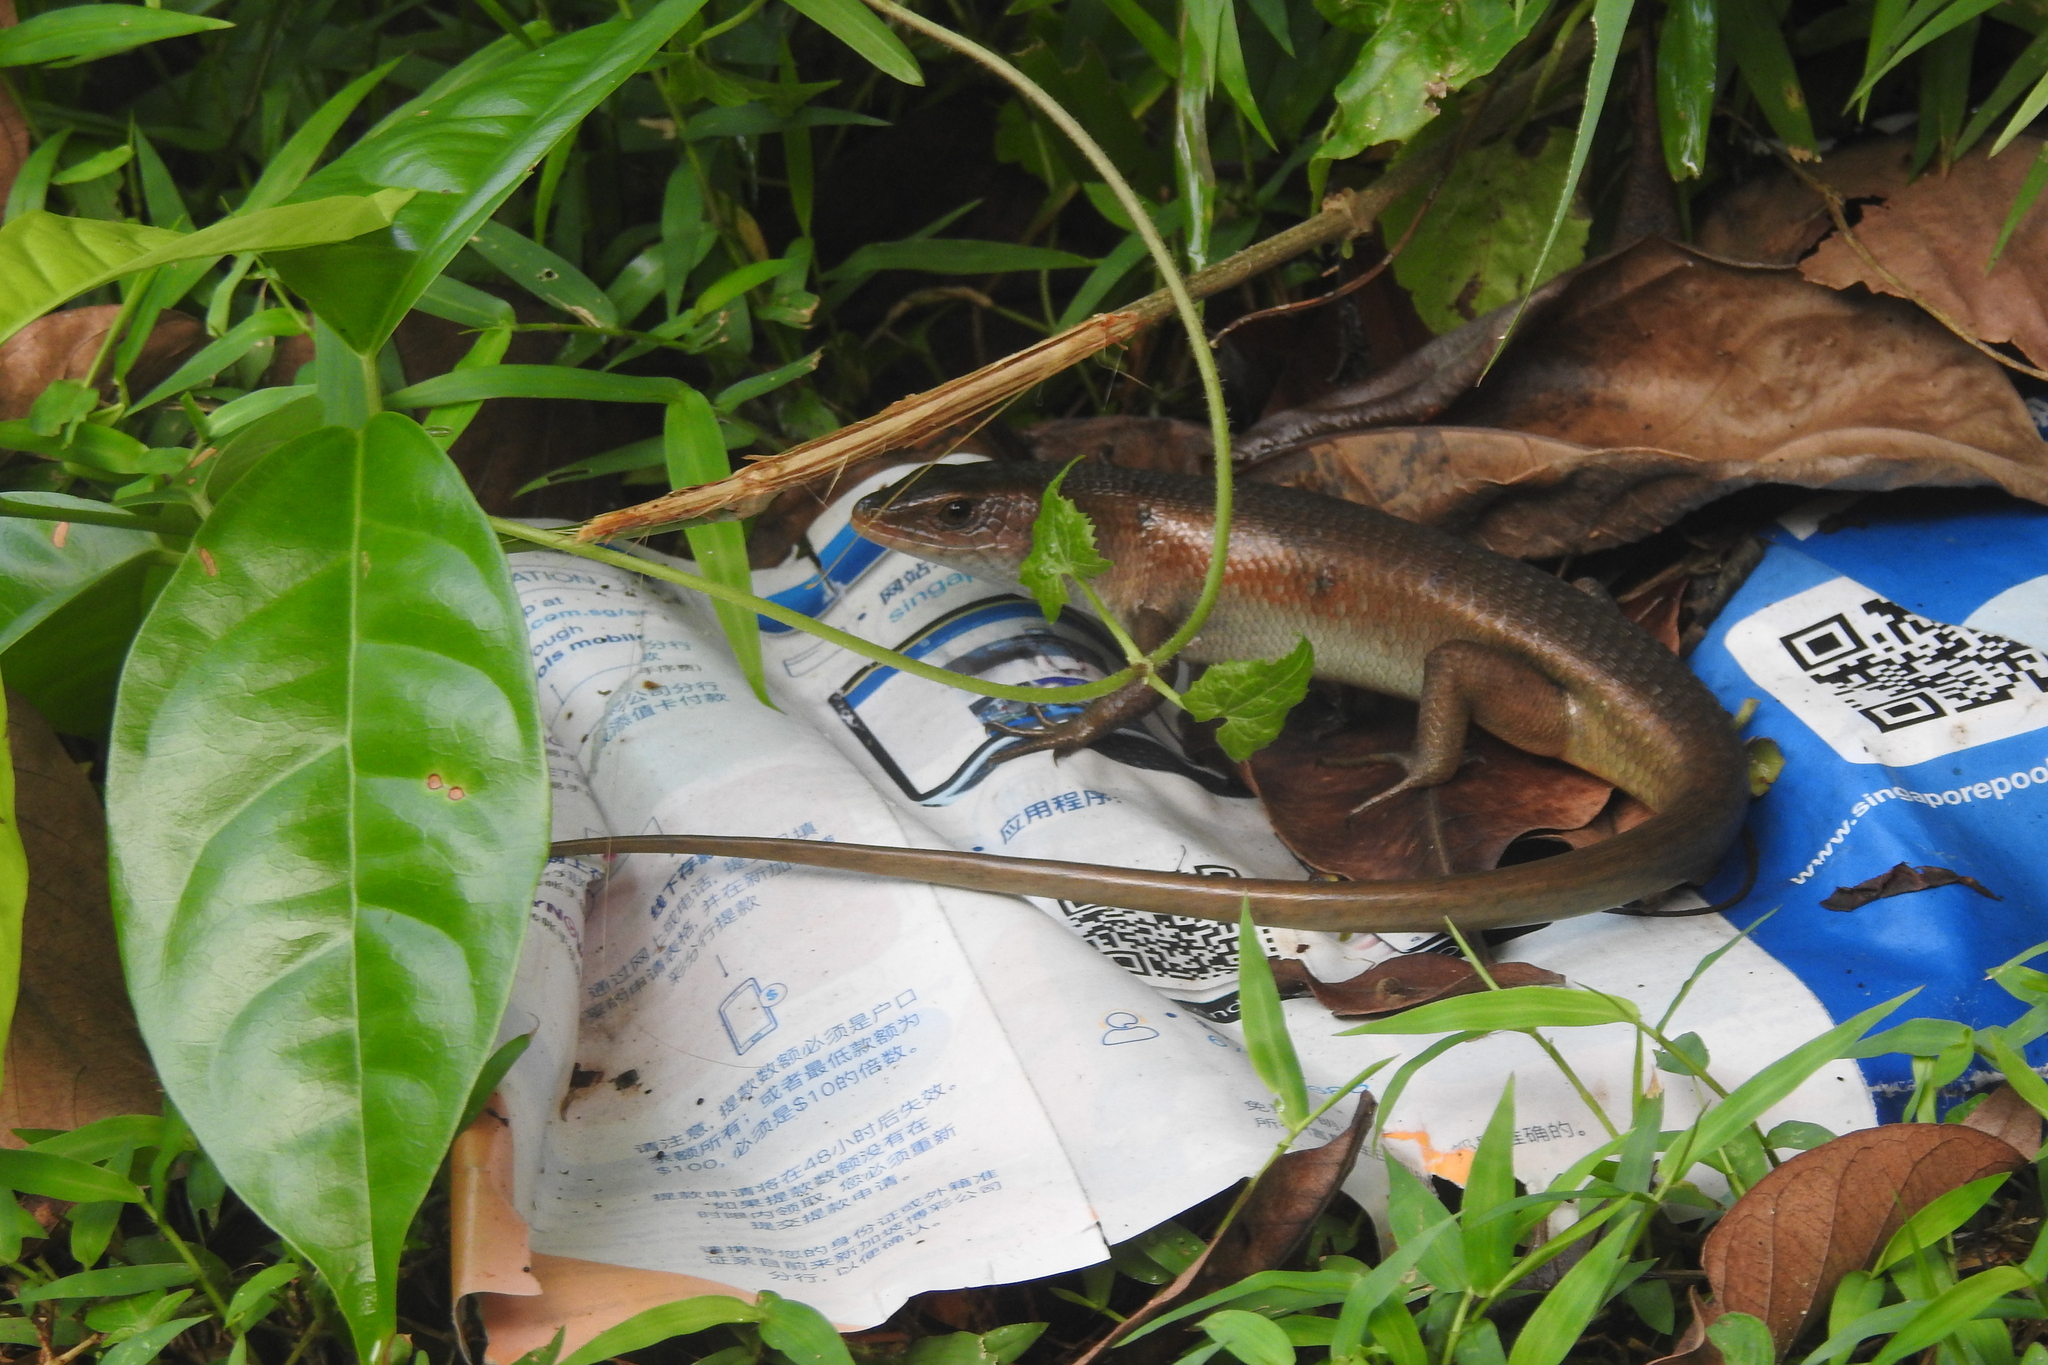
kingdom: Animalia
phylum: Chordata
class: Squamata
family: Scincidae
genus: Eutropis
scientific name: Eutropis multifasciata
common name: Common mabuya
